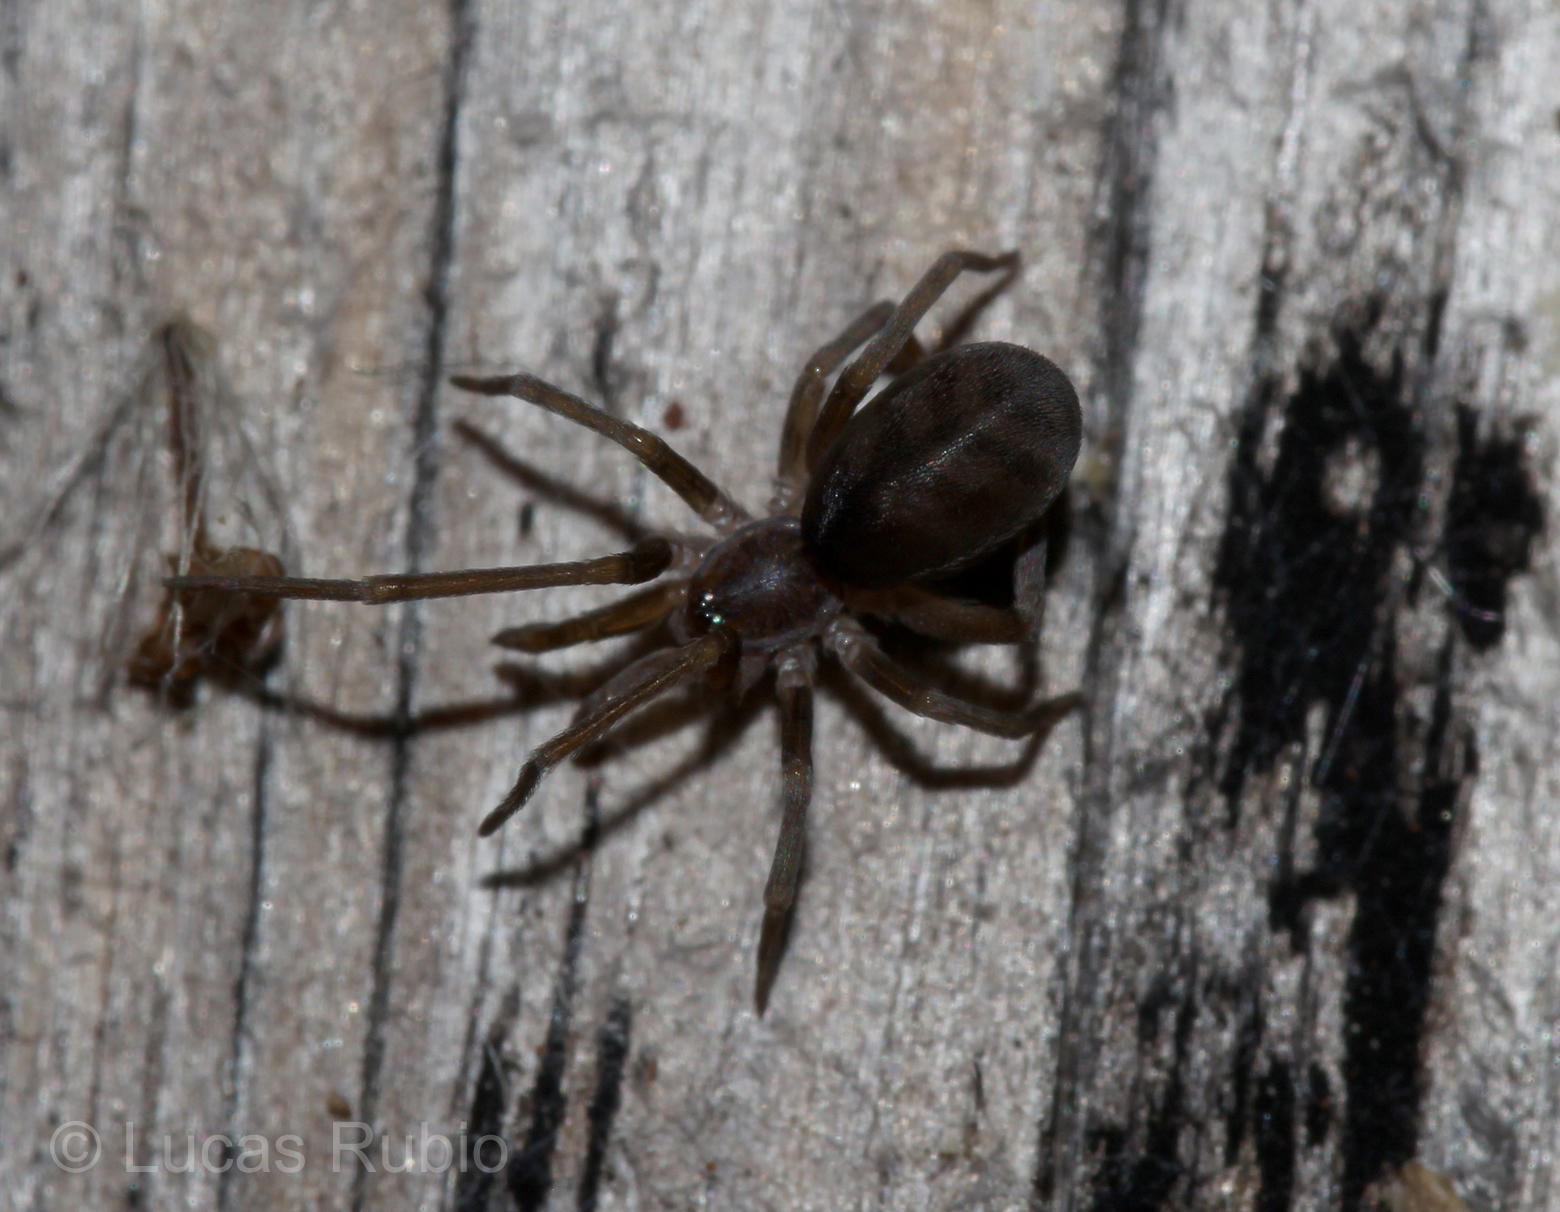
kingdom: Animalia
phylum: Arthropoda
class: Arachnida
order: Araneae
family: Filistatidae
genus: Misionella
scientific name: Misionella mendensis
